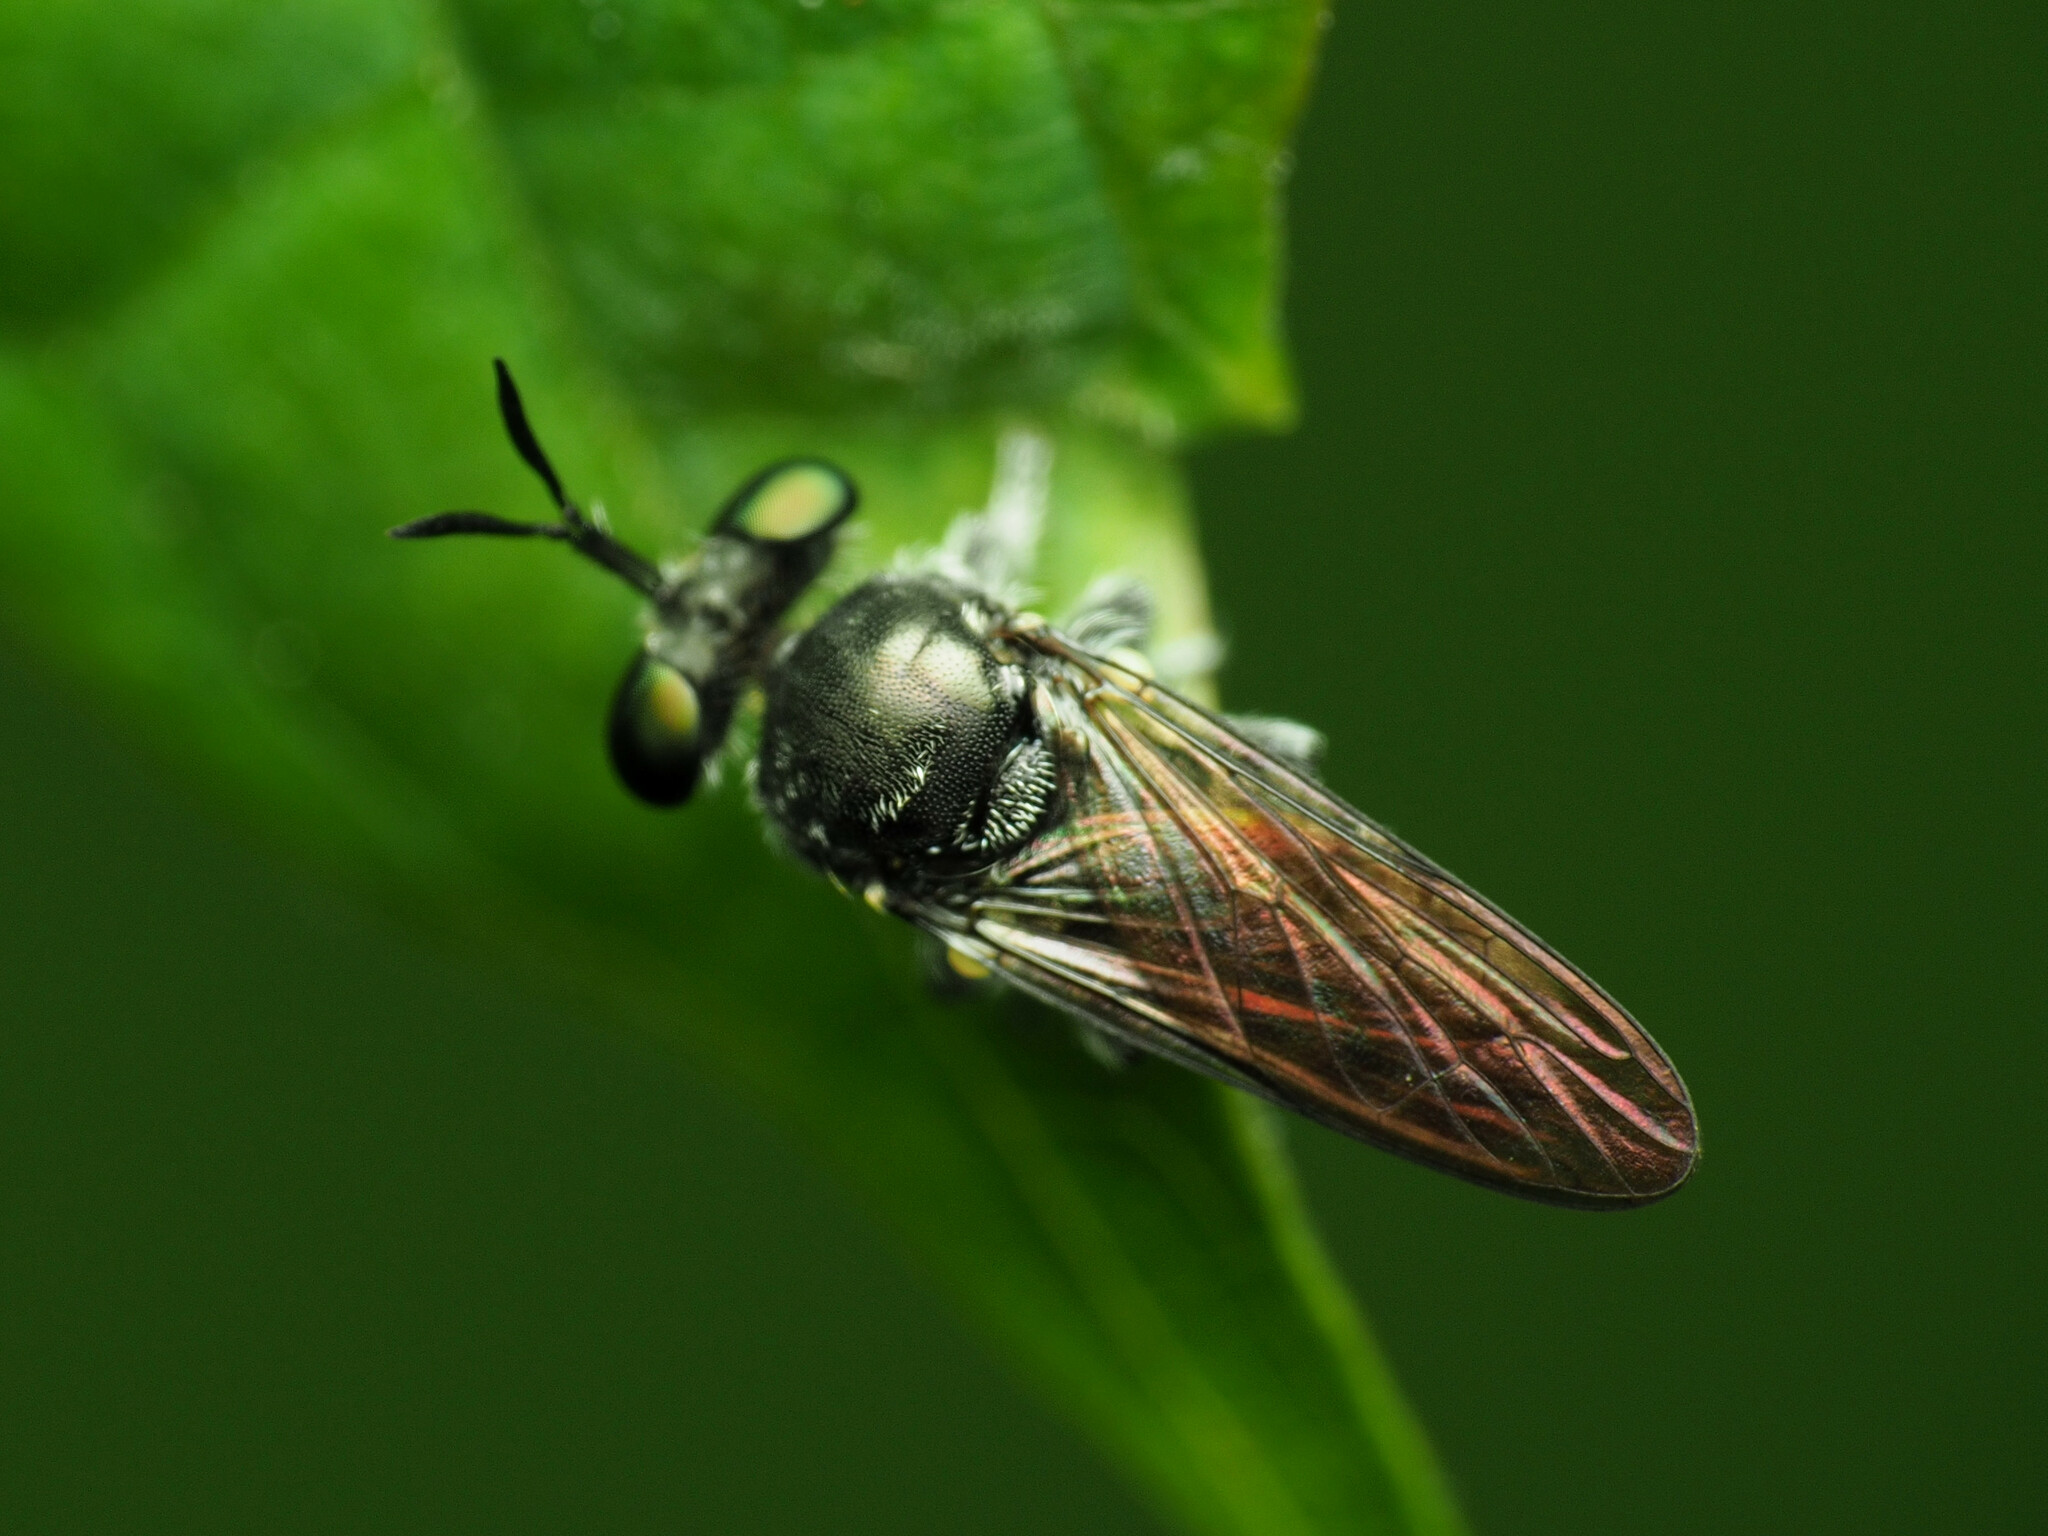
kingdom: Animalia
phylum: Arthropoda
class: Insecta
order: Diptera
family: Asilidae
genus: Cerotainia
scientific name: Cerotainia albipilosa
